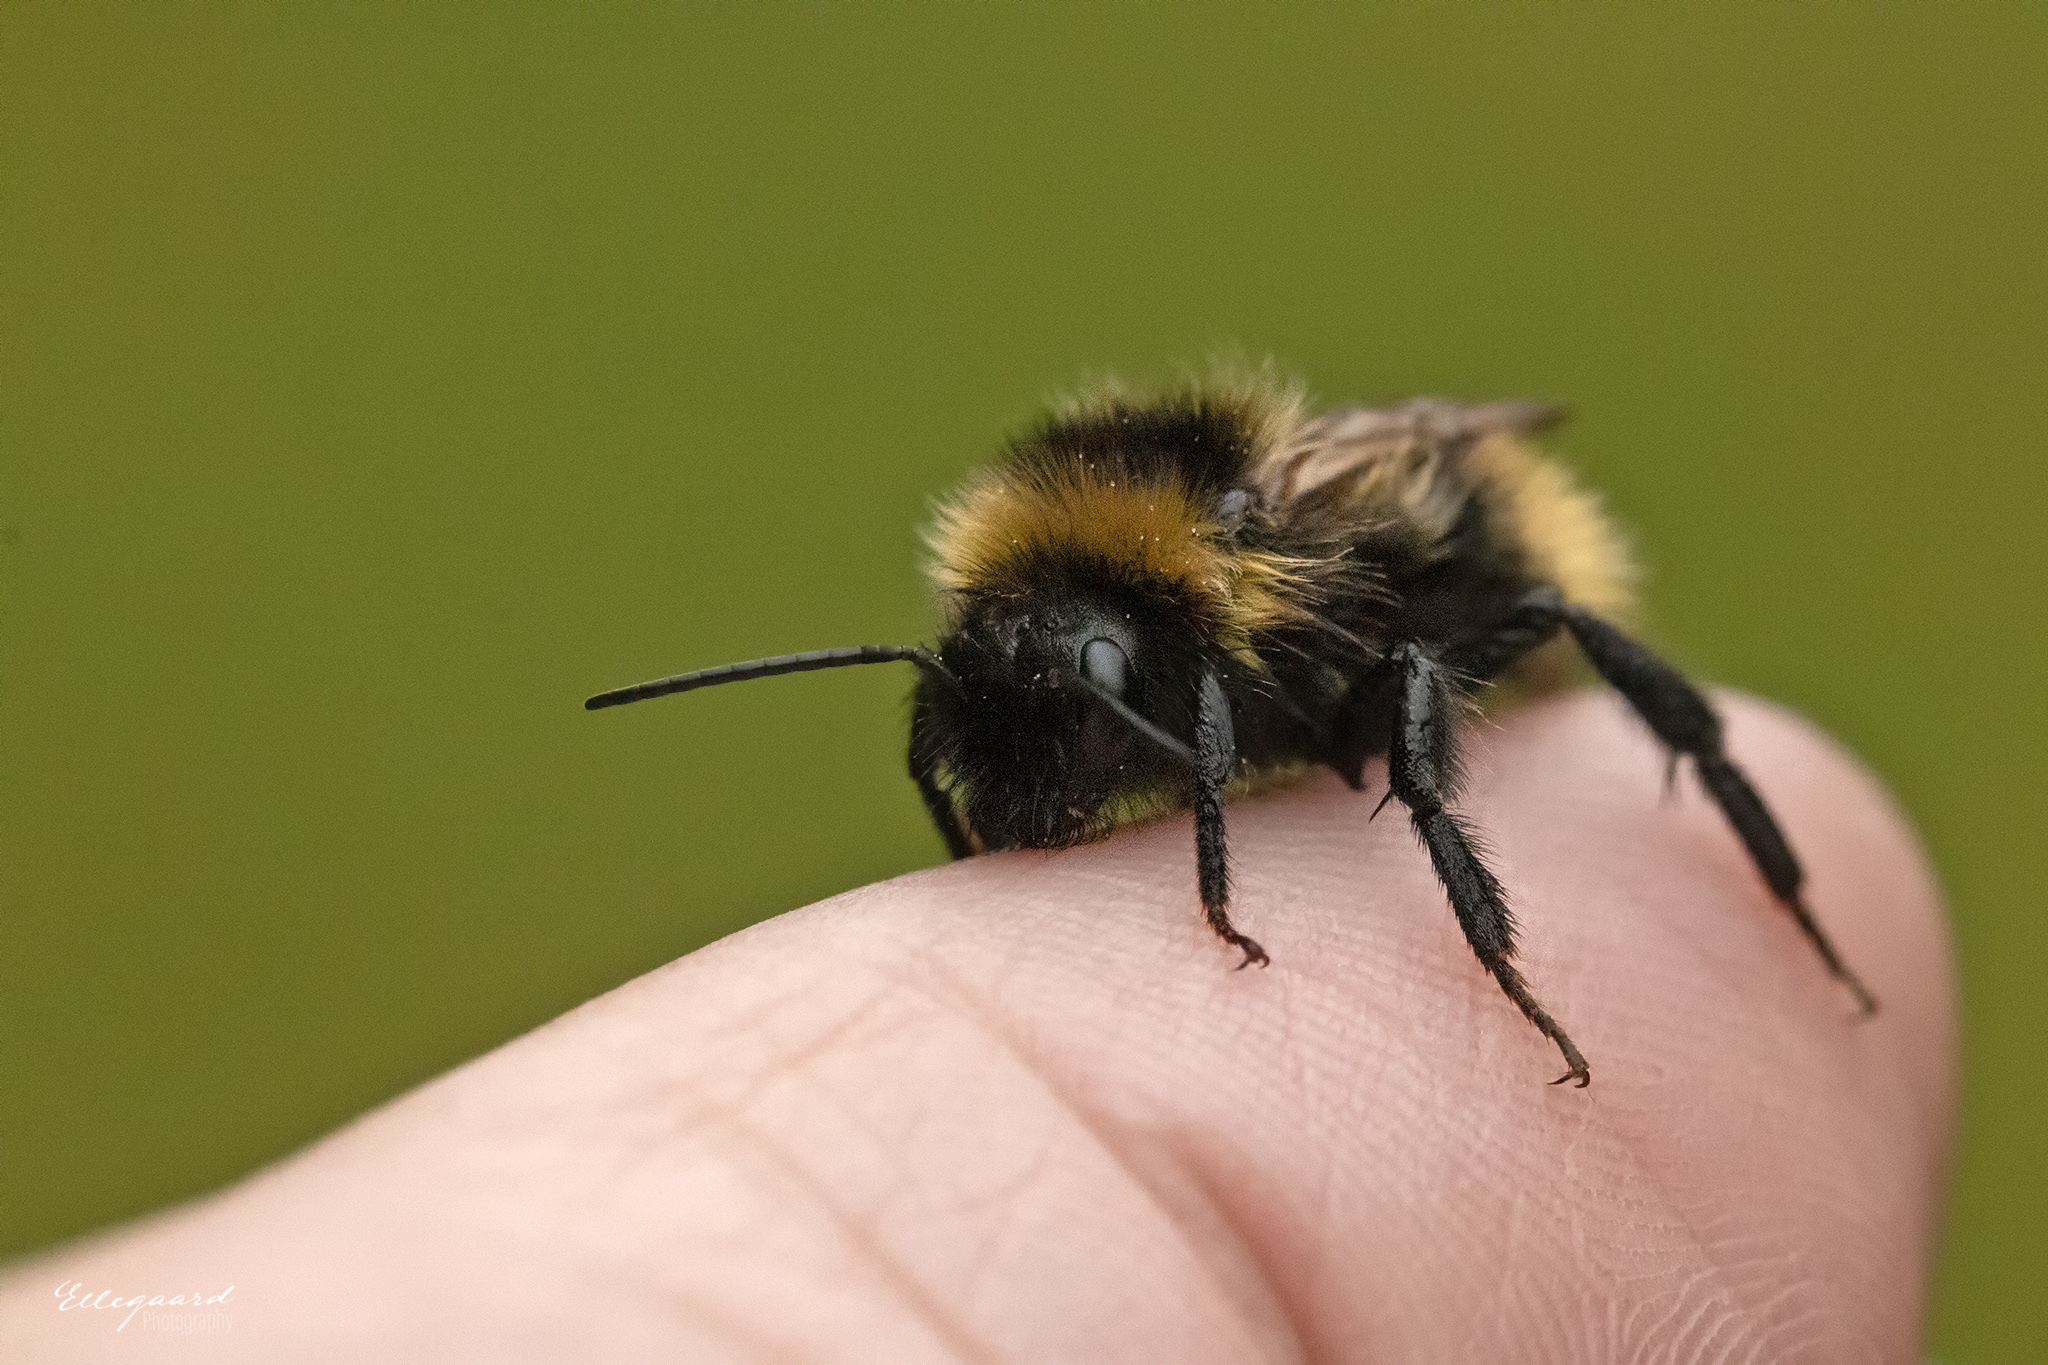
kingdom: Animalia
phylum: Arthropoda
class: Insecta
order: Hymenoptera
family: Apidae
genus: Bombus
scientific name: Bombus campestris
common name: Field cuckoo-bee
